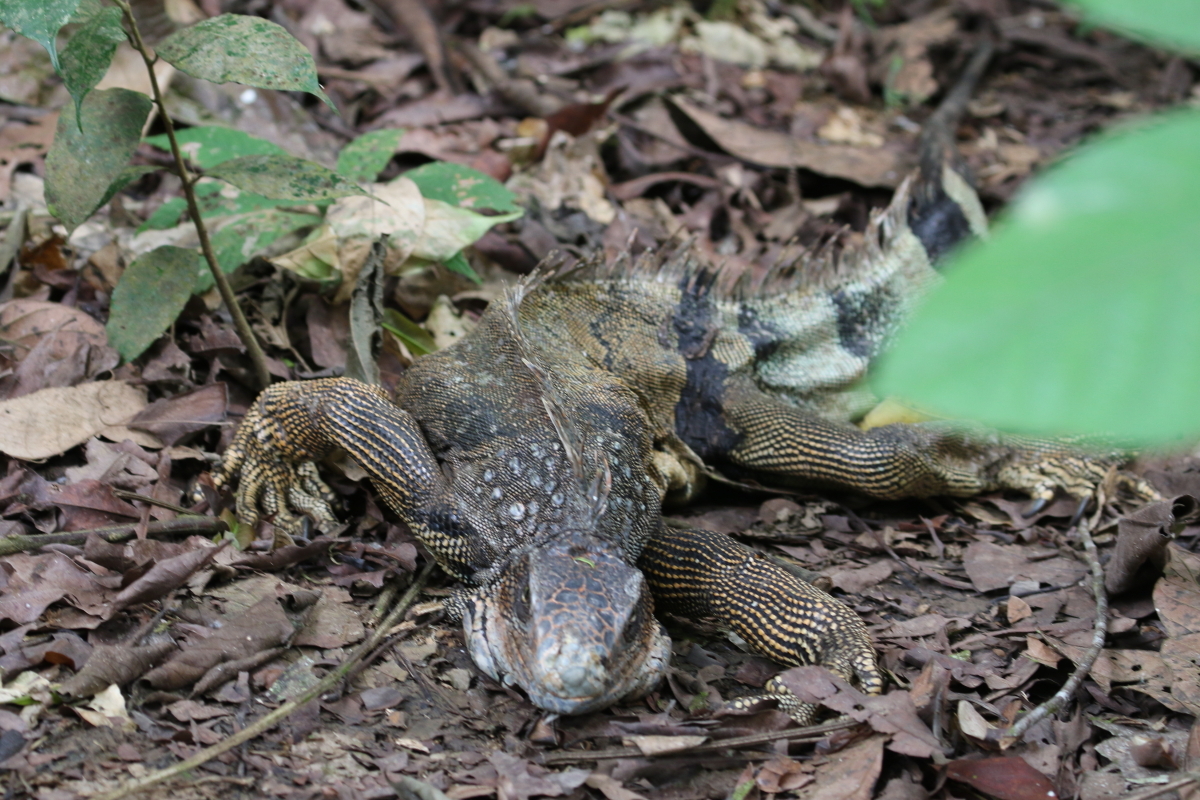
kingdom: Animalia
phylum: Chordata
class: Squamata
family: Iguanidae
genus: Iguana
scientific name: Iguana iguana
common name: Green iguana
